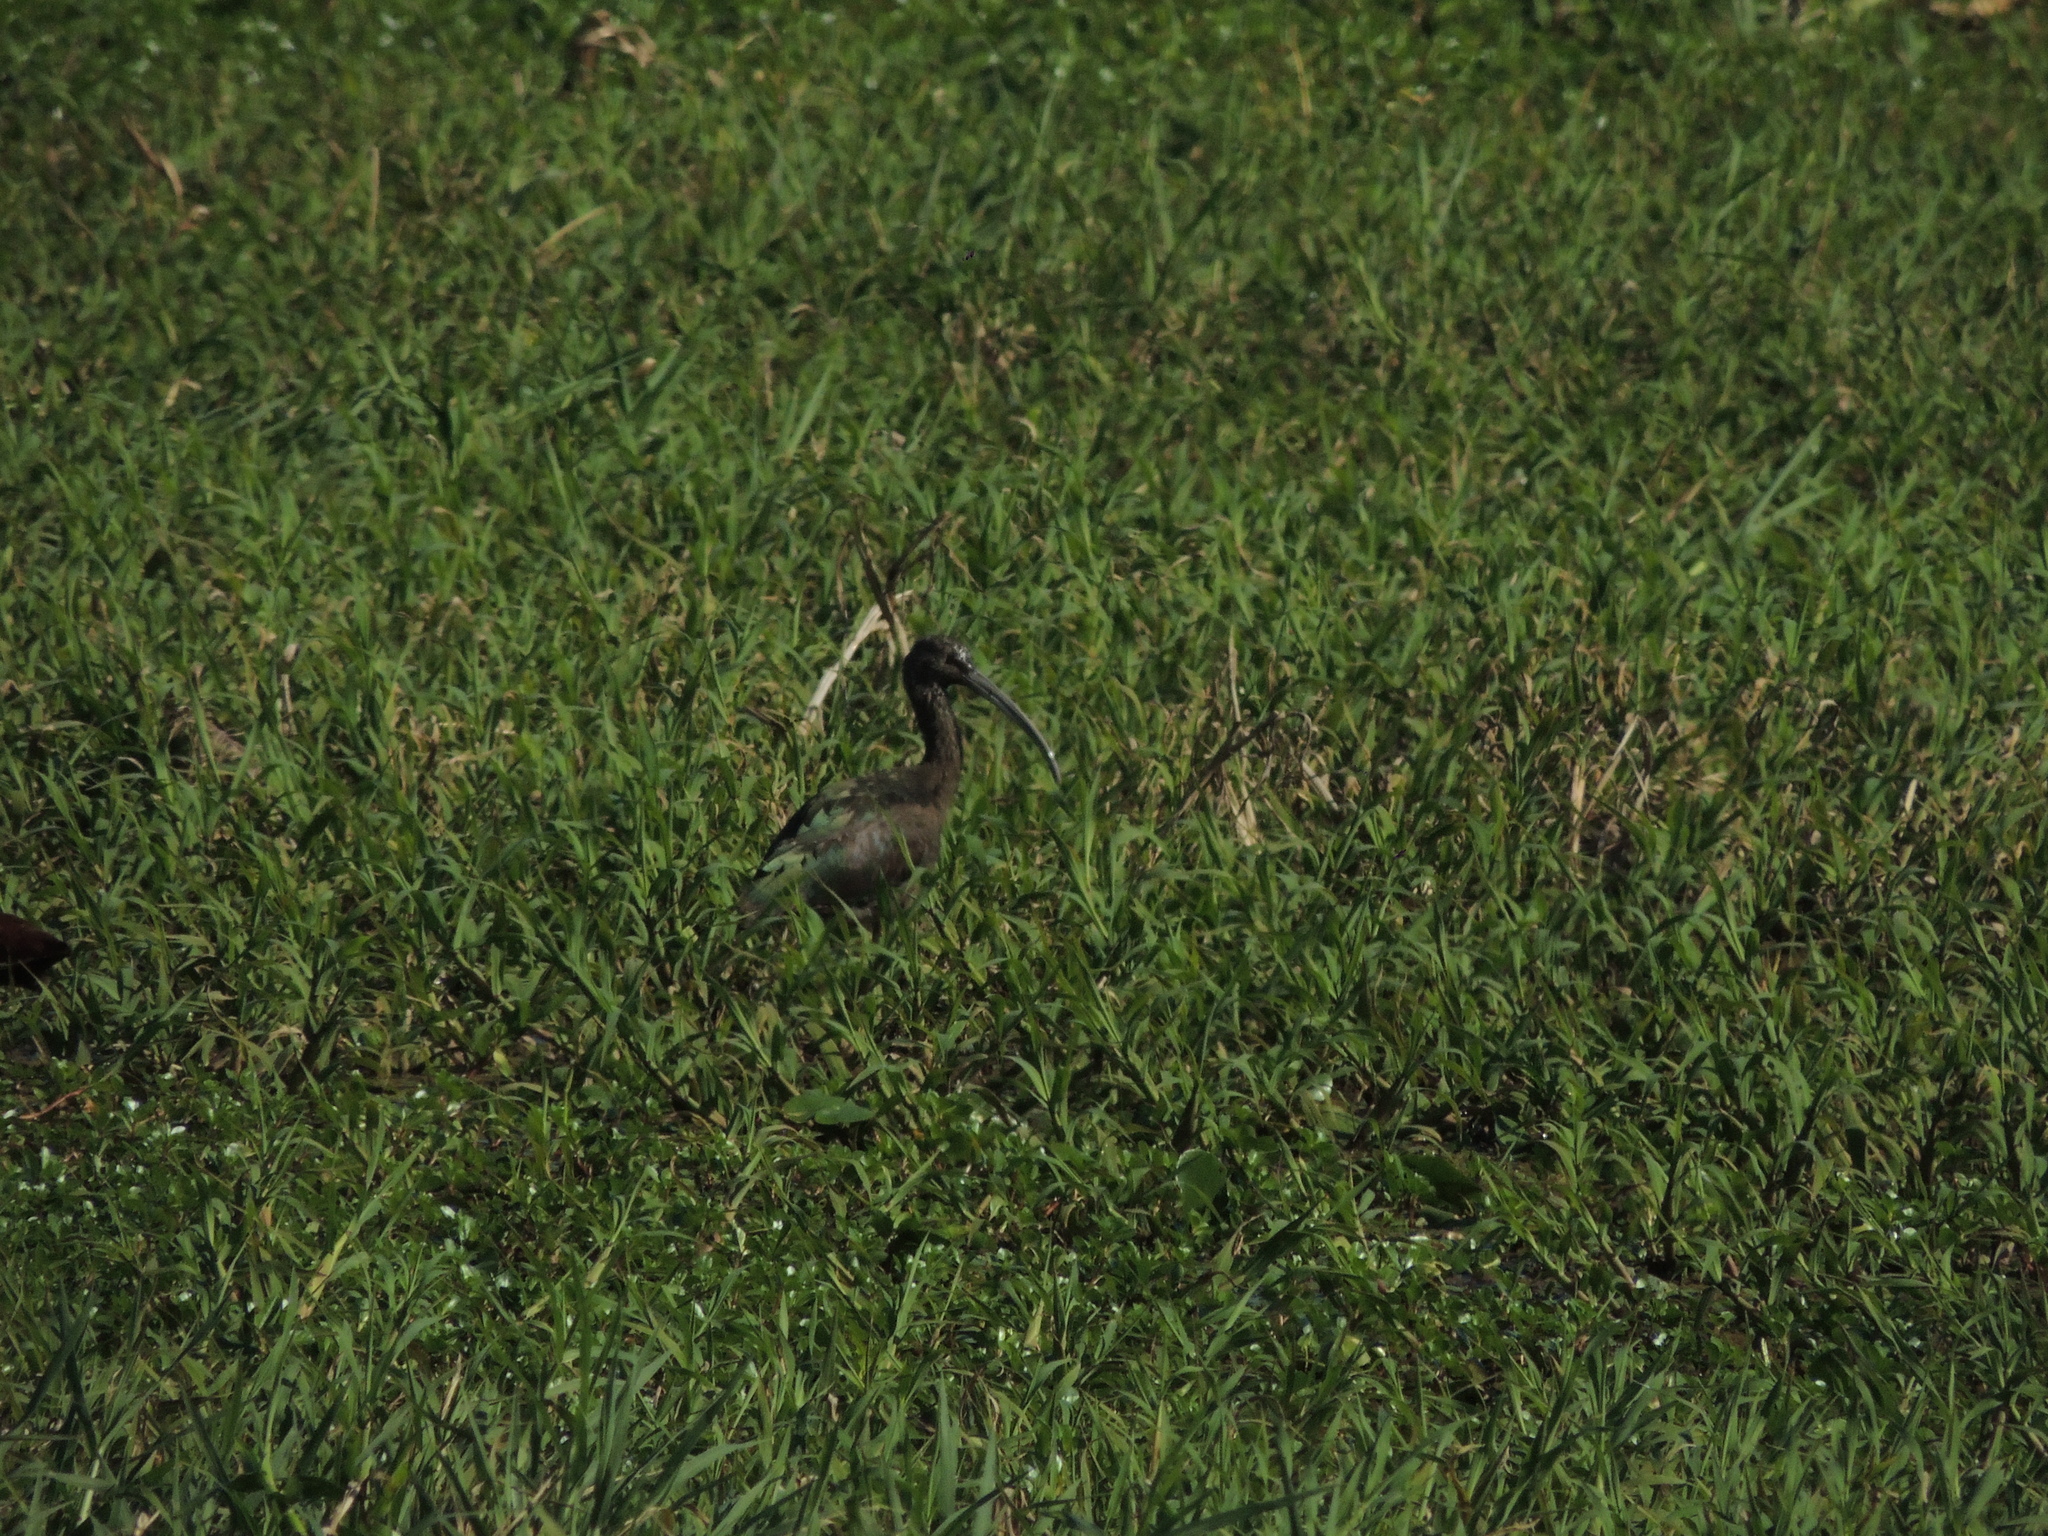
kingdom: Animalia
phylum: Chordata
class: Aves
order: Pelecaniformes
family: Threskiornithidae
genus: Plegadis
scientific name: Plegadis chihi
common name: White-faced ibis
